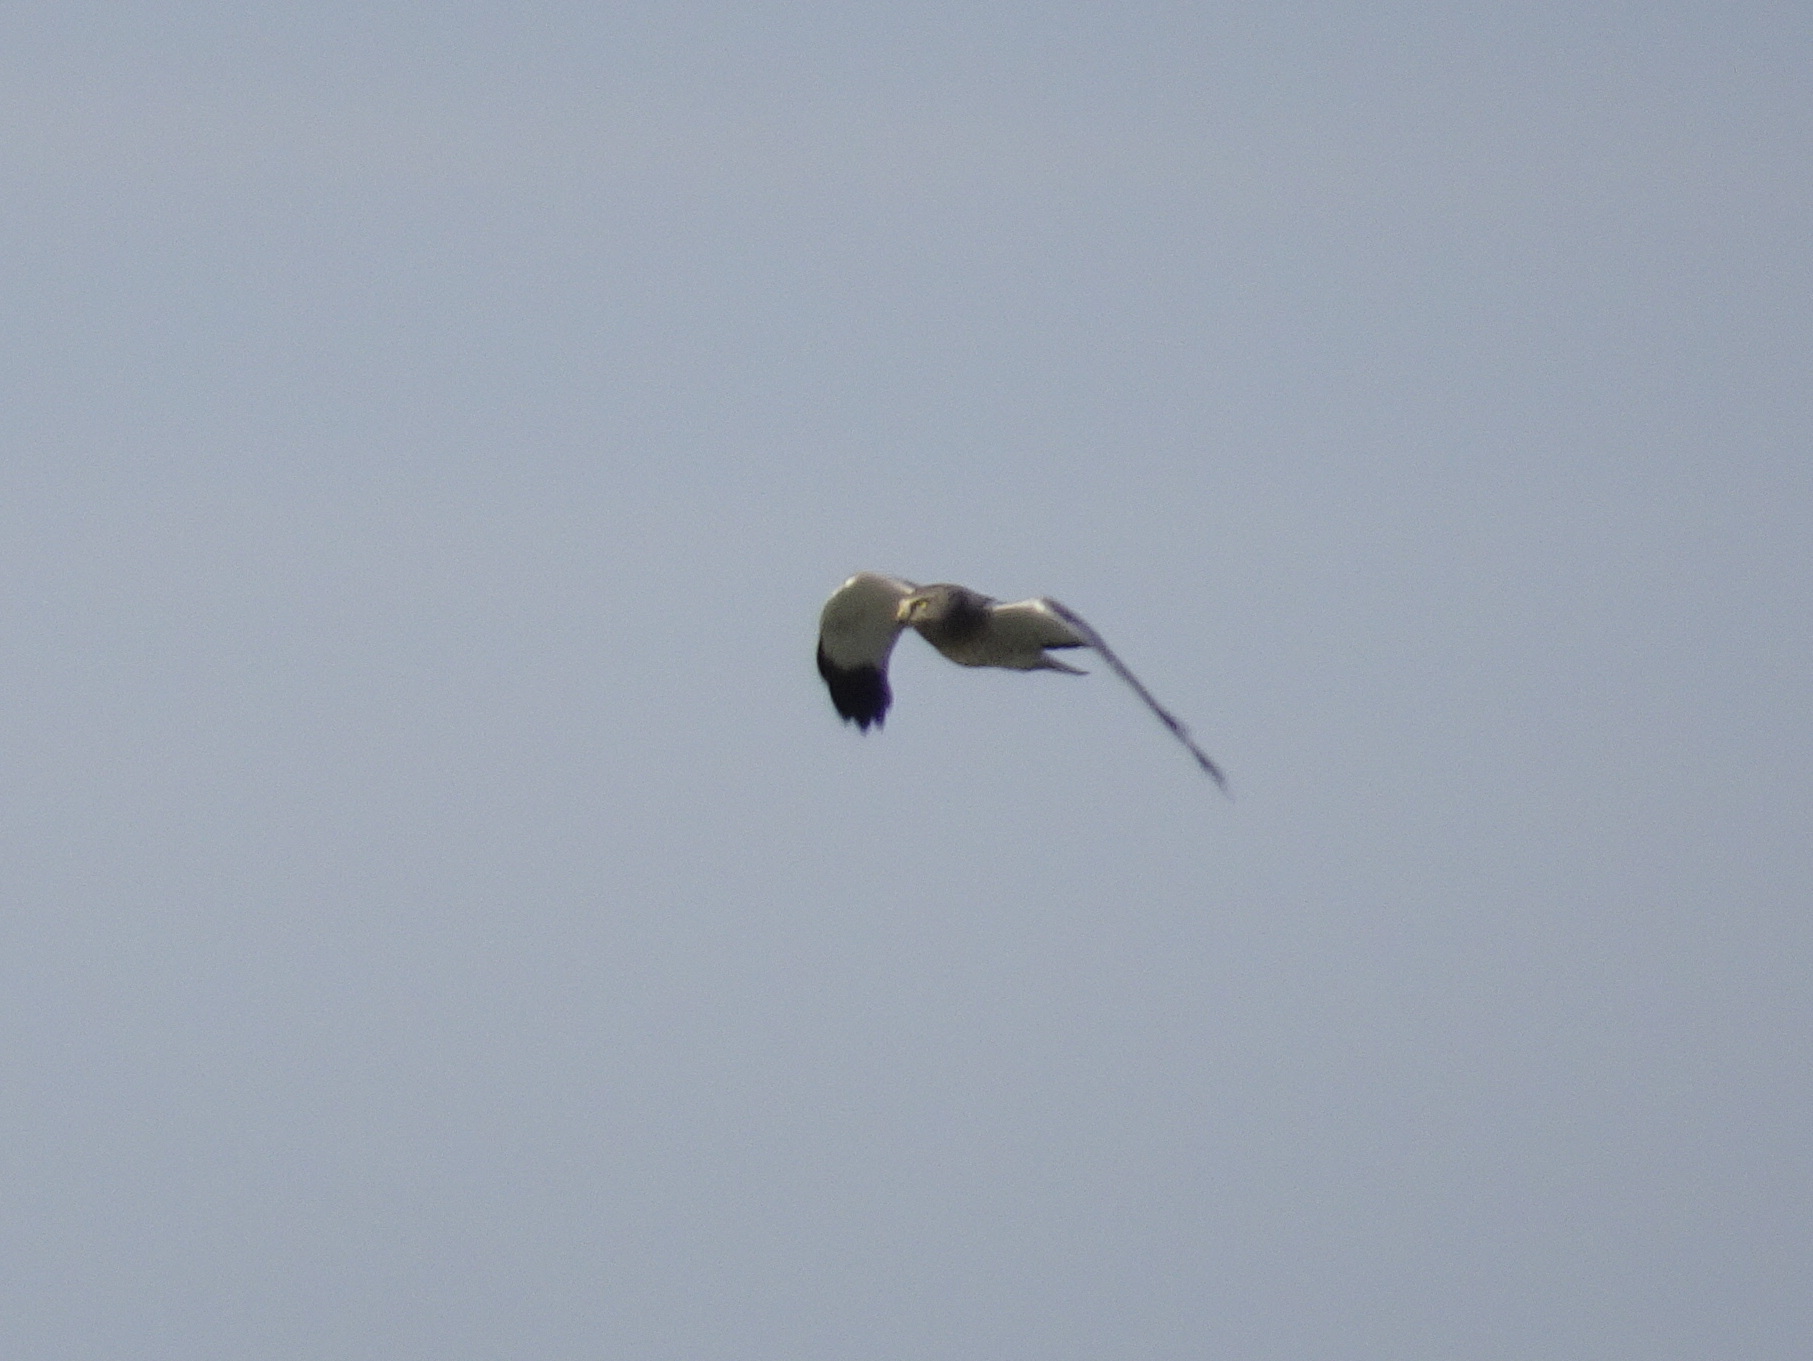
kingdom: Animalia
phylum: Chordata
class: Aves
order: Accipitriformes
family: Accipitridae
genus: Circus
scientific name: Circus cyaneus
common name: Hen harrier
